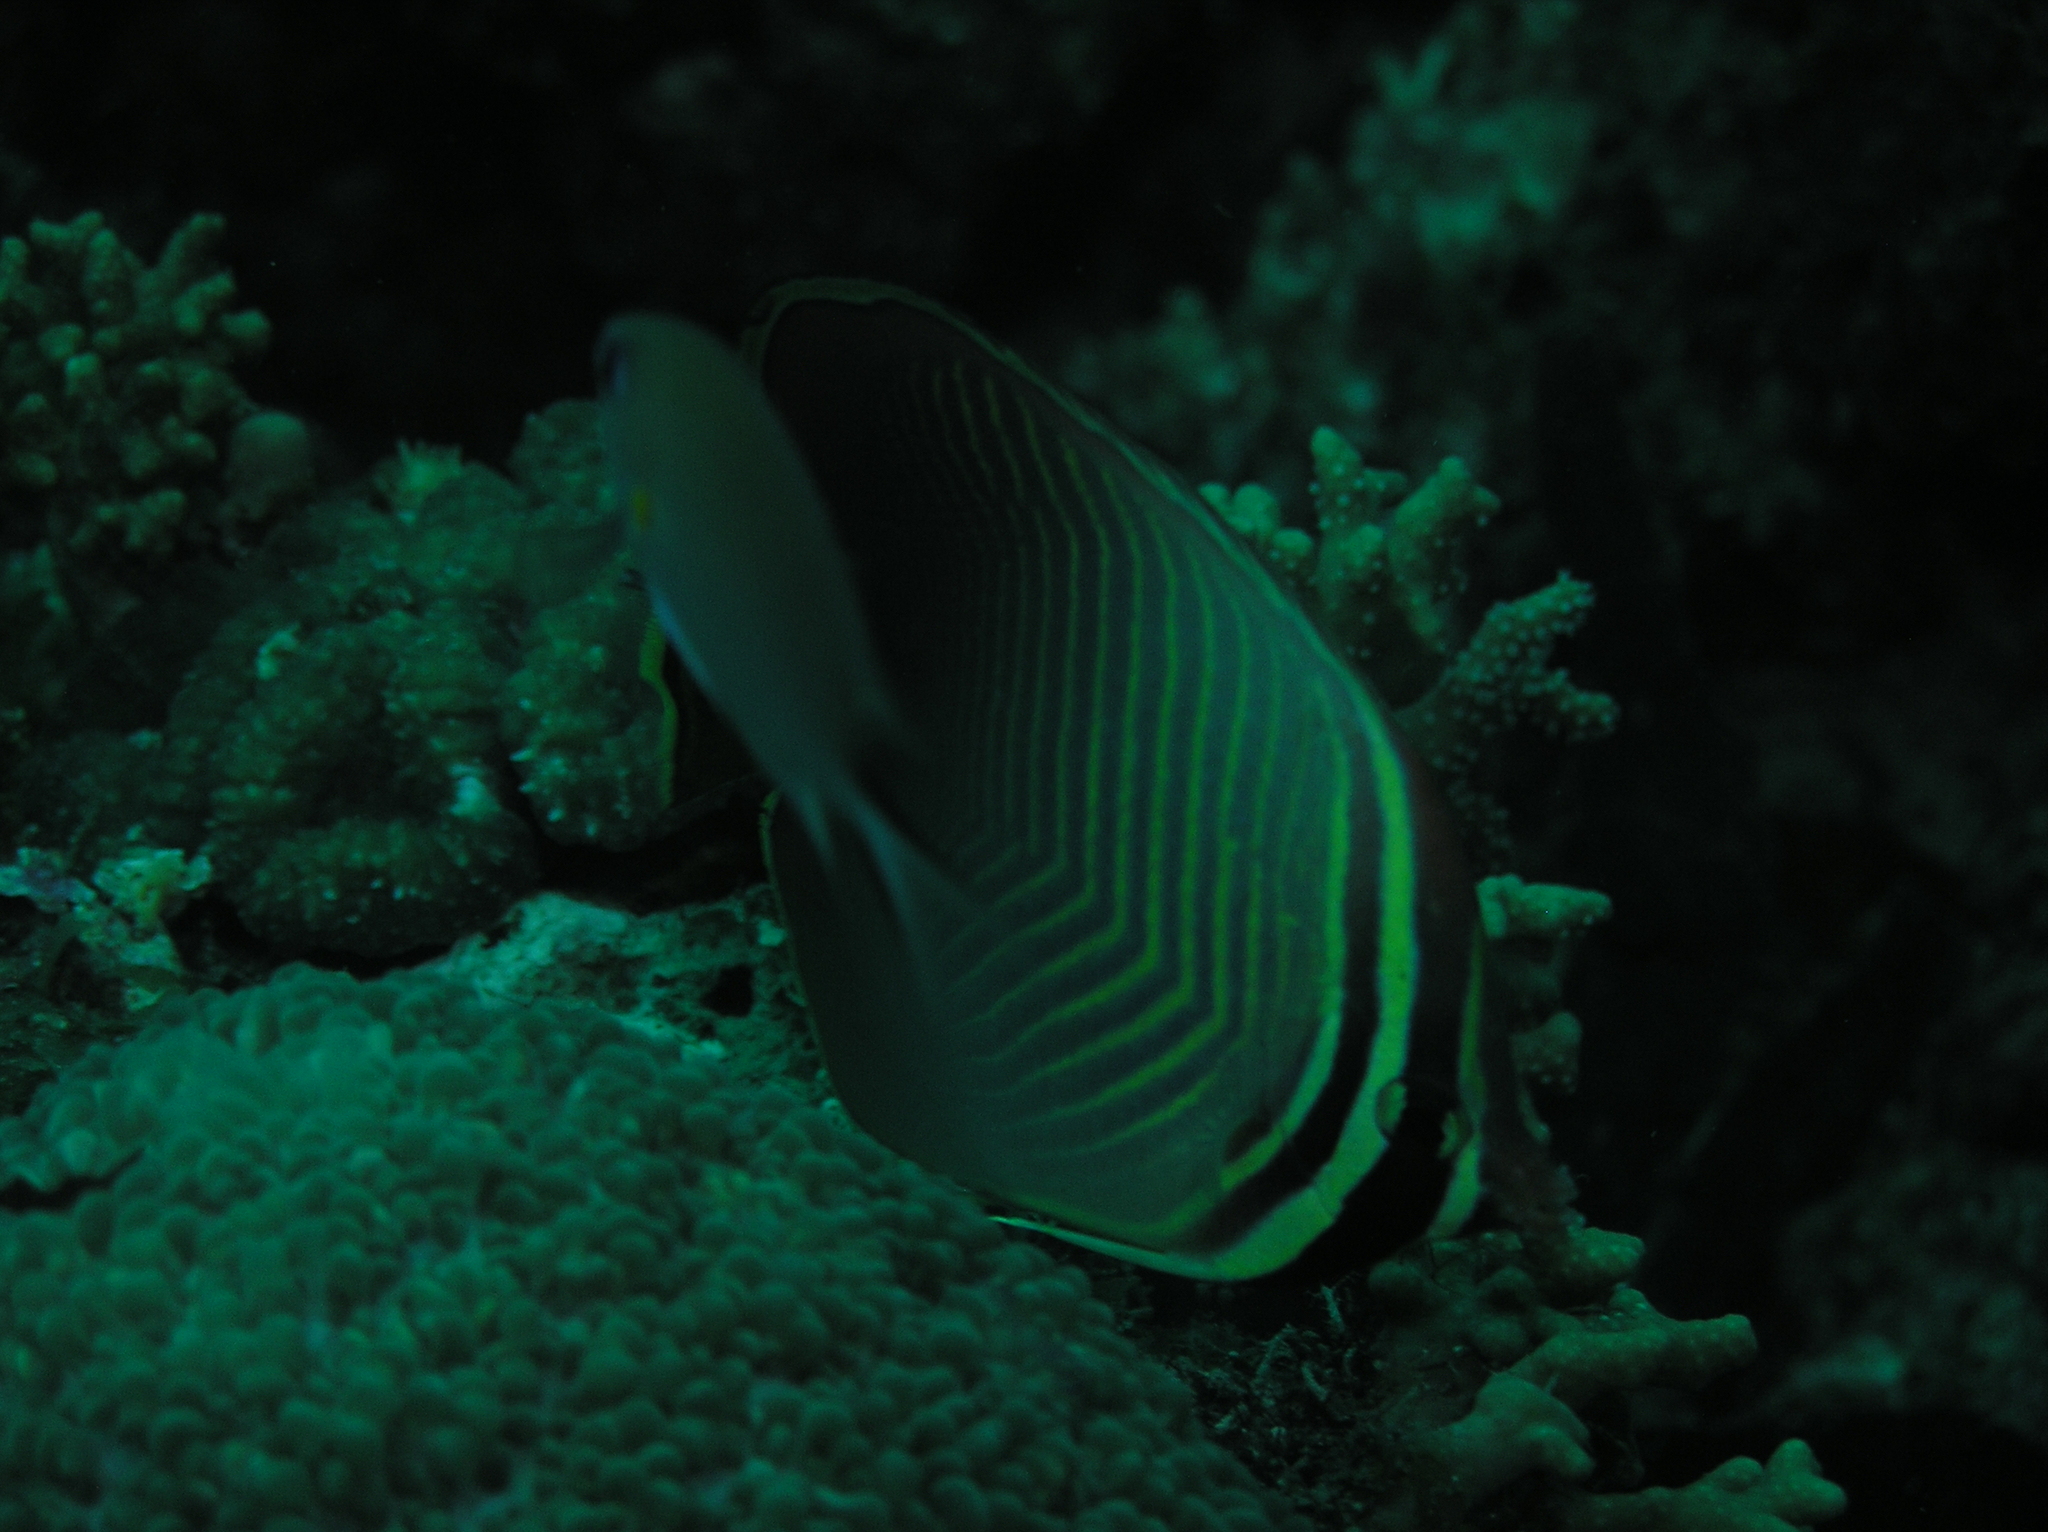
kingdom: Animalia
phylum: Chordata
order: Perciformes
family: Chaetodontidae
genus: Chaetodon
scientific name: Chaetodon baronessa
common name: Triangular butterflyfish
